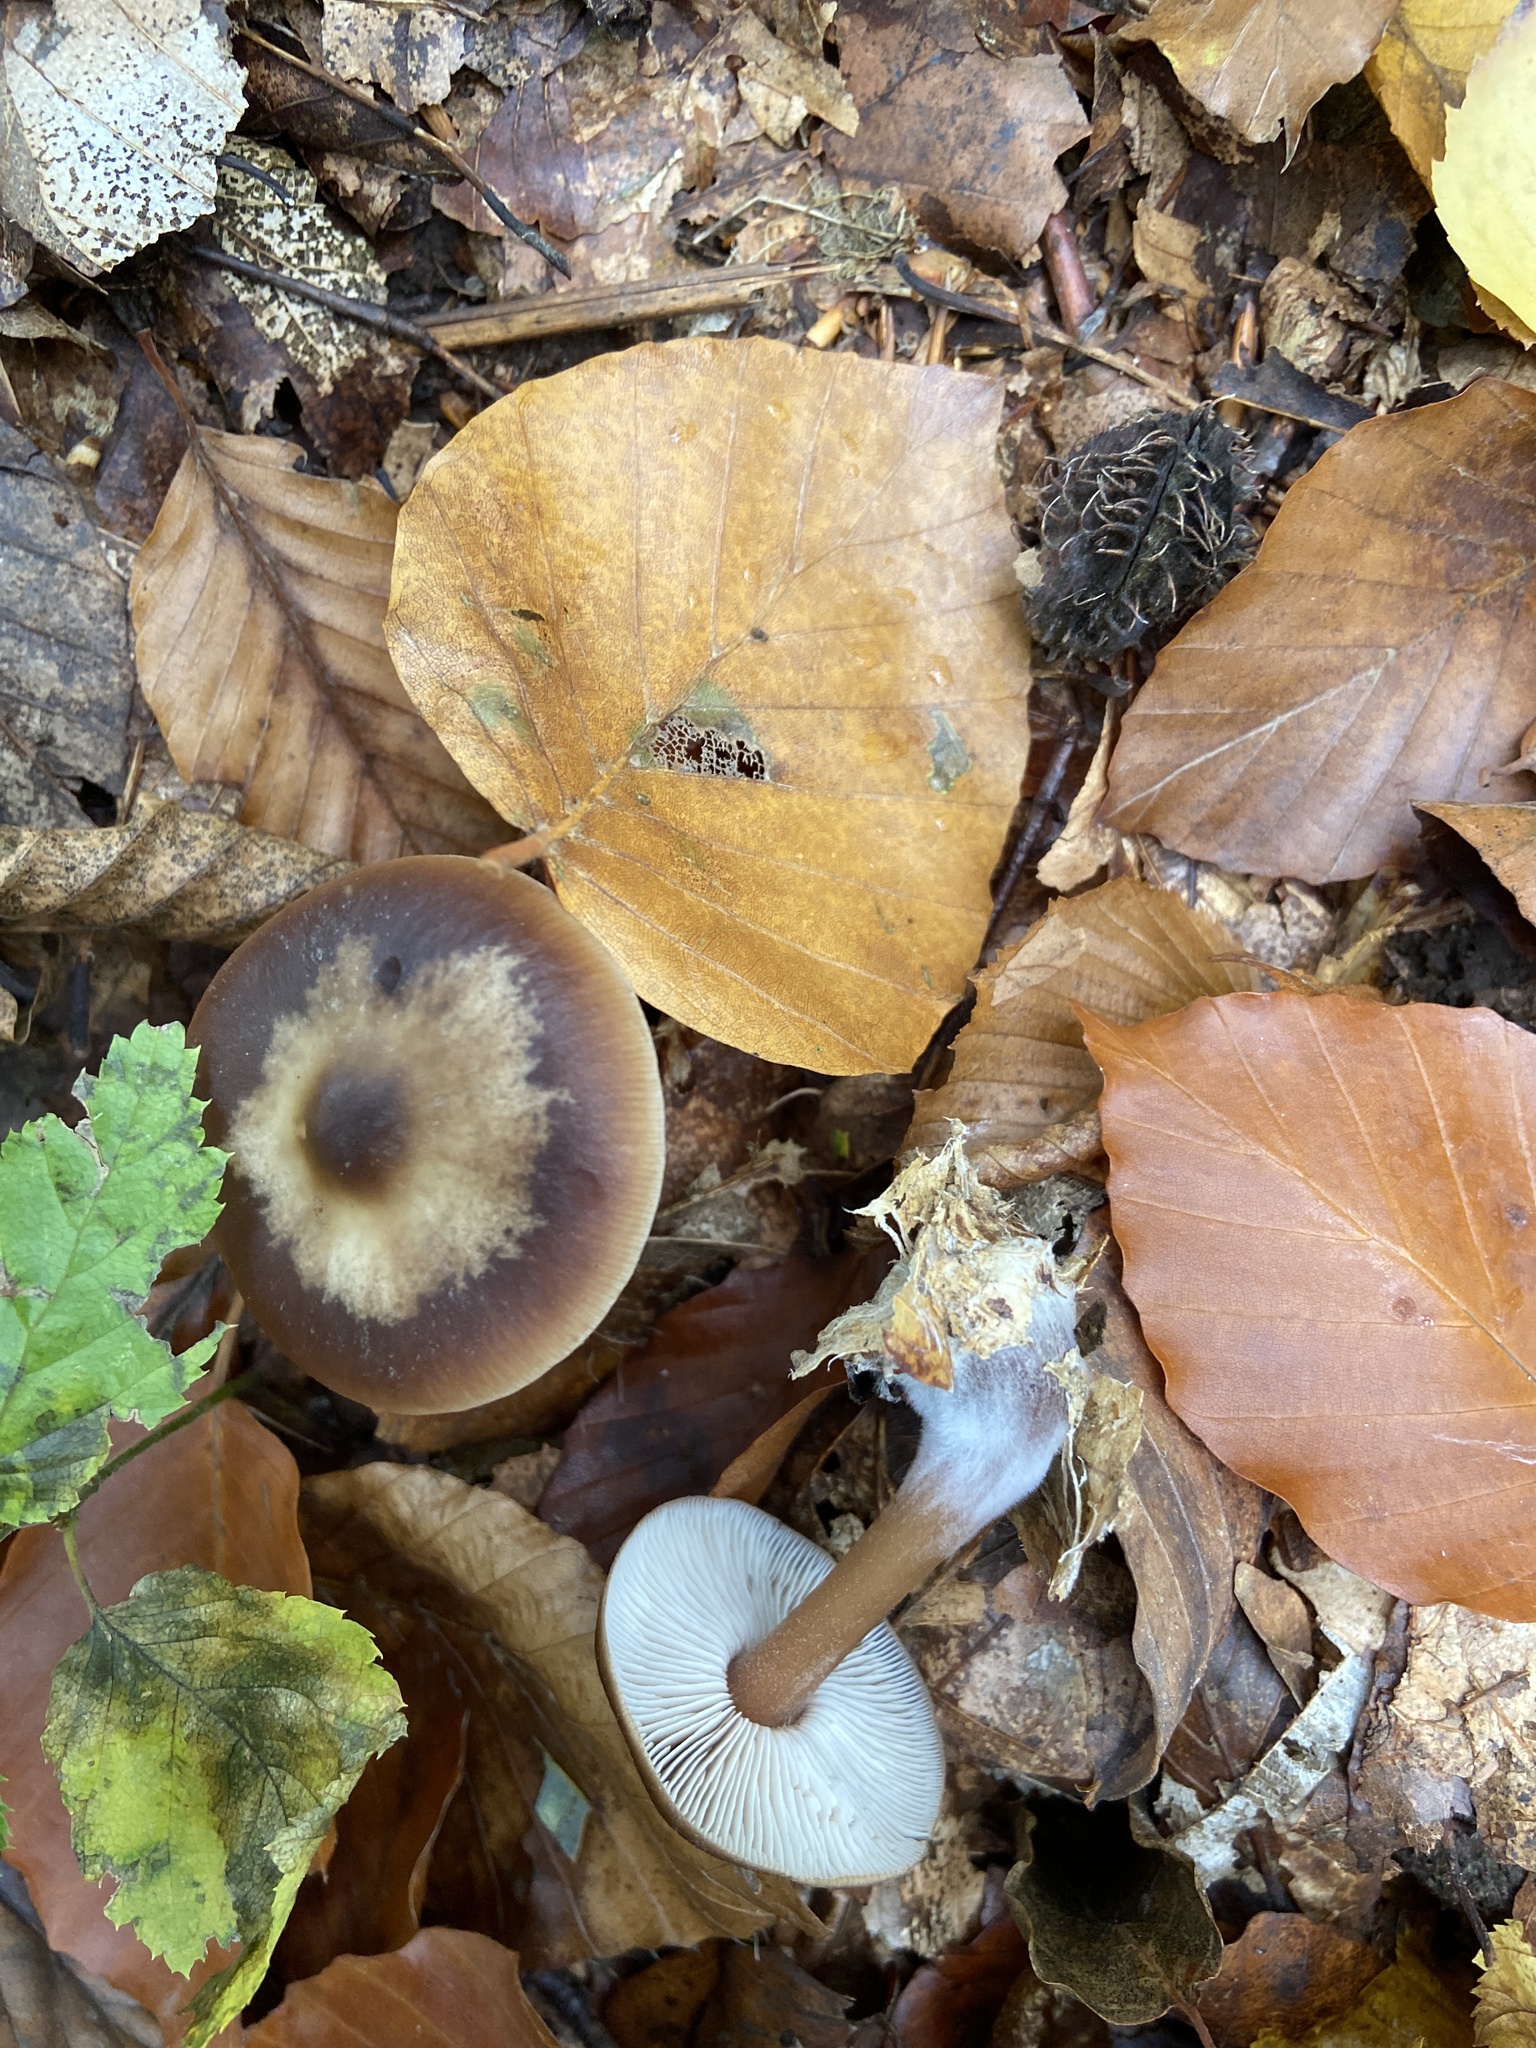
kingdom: Fungi
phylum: Basidiomycota
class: Agaricomycetes
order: Agaricales
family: Omphalotaceae
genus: Rhodocollybia
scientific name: Rhodocollybia butyracea
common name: Butter cap
